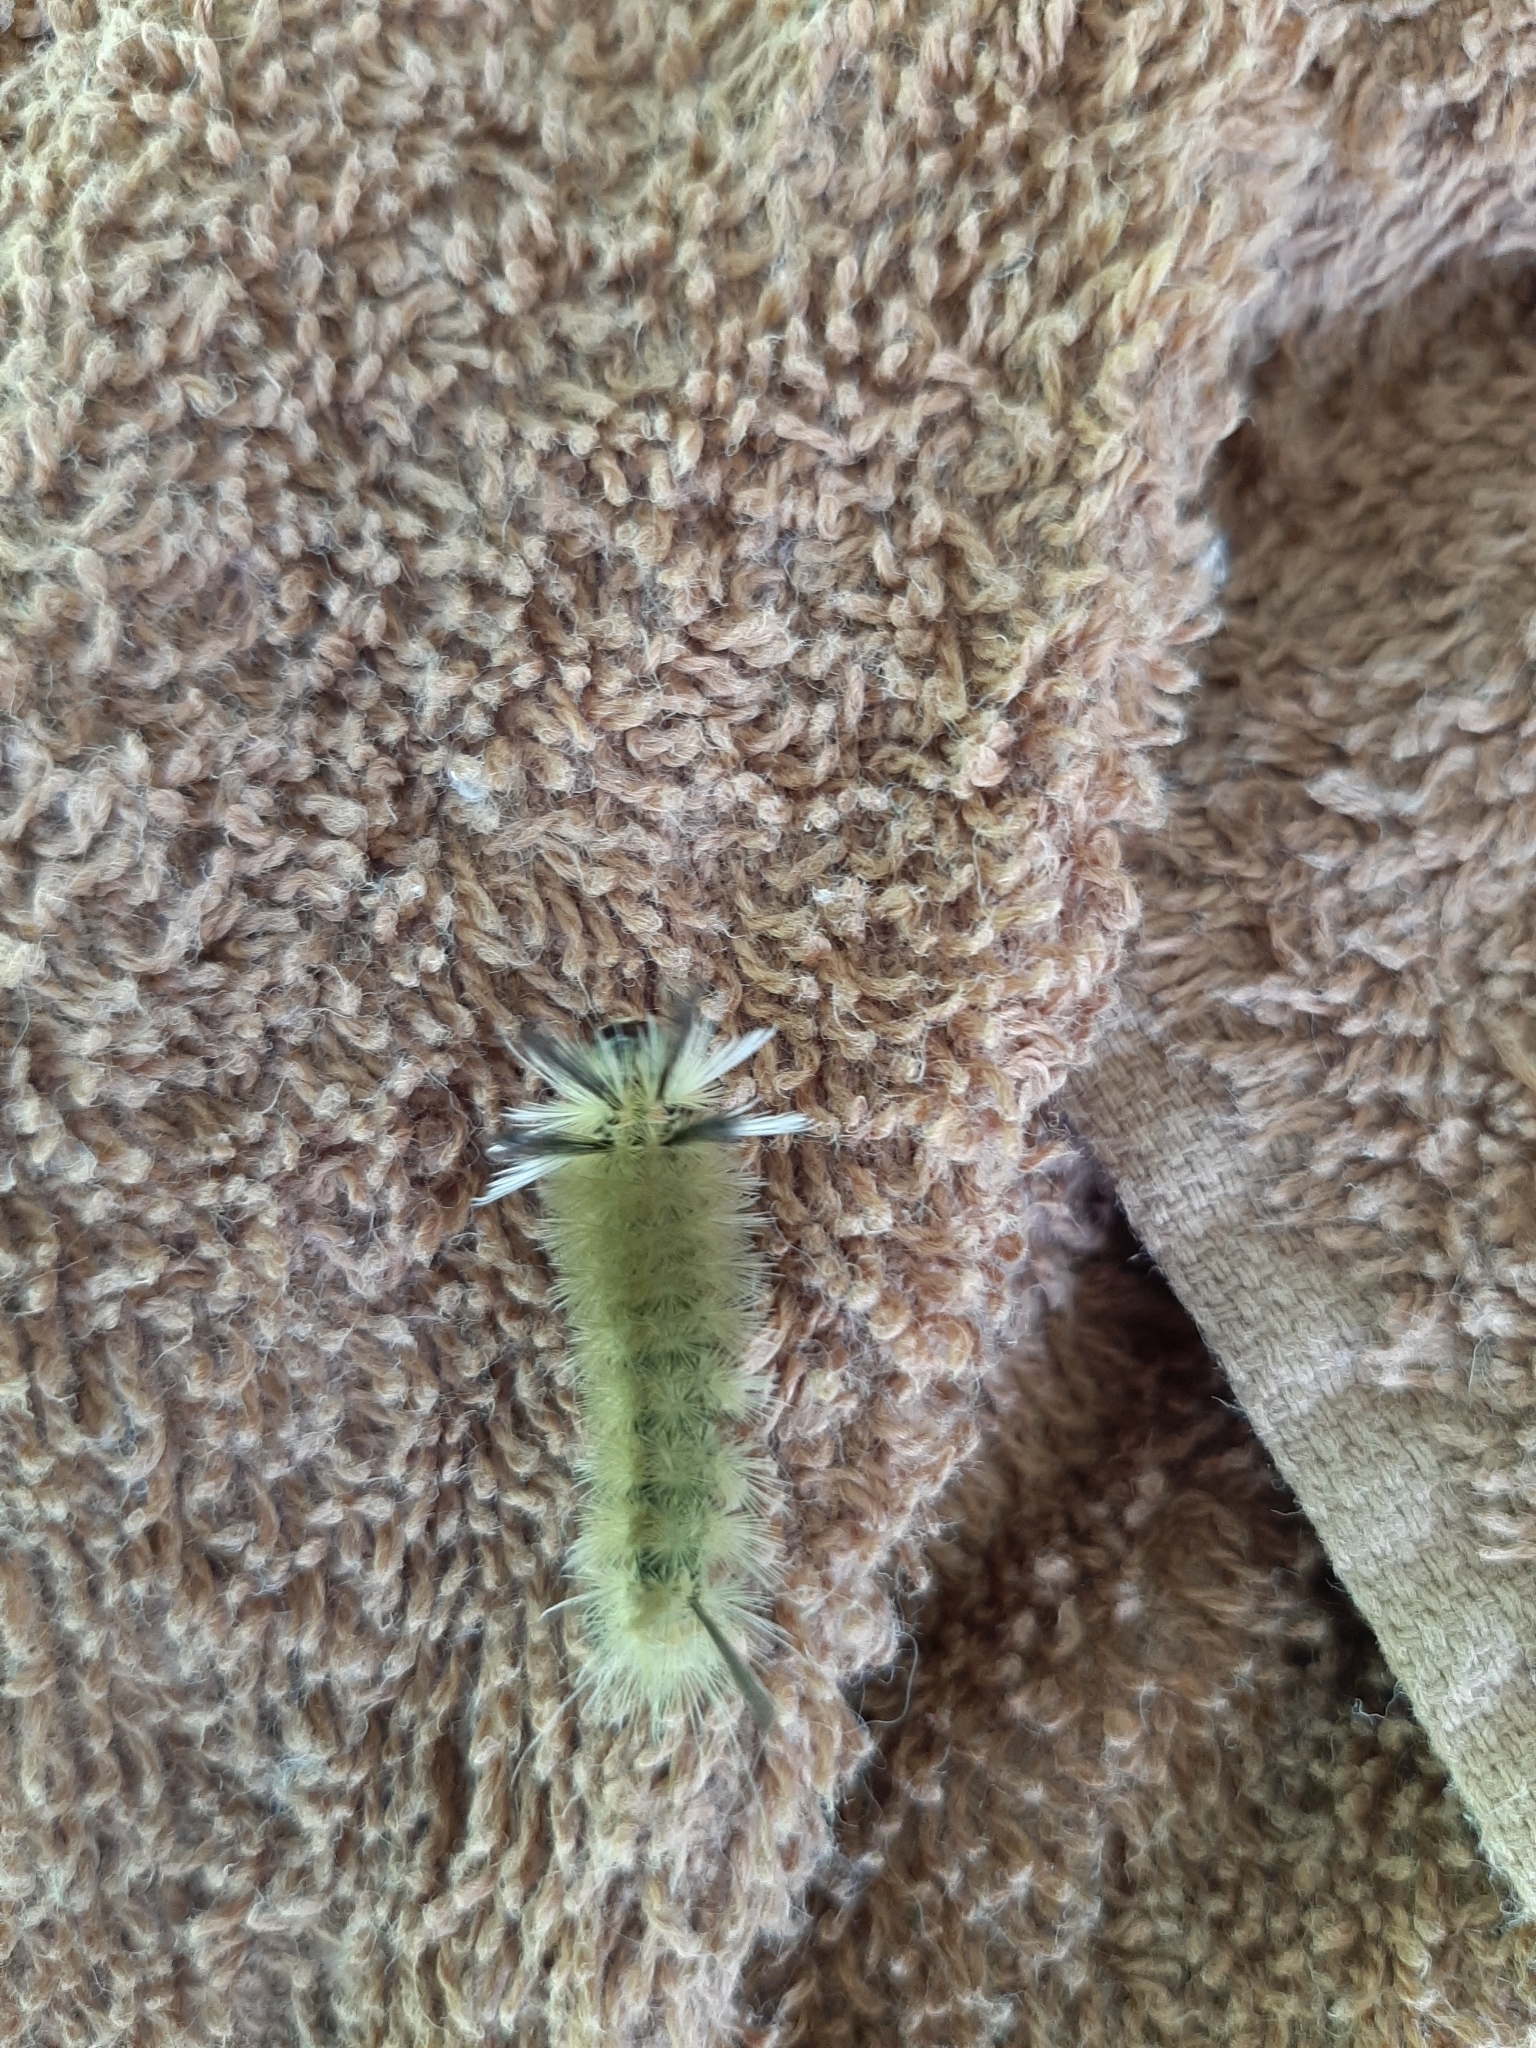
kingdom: Animalia
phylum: Arthropoda
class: Insecta
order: Lepidoptera
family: Erebidae
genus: Halysidota
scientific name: Halysidota tessellaris
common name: Banded tussock moth
